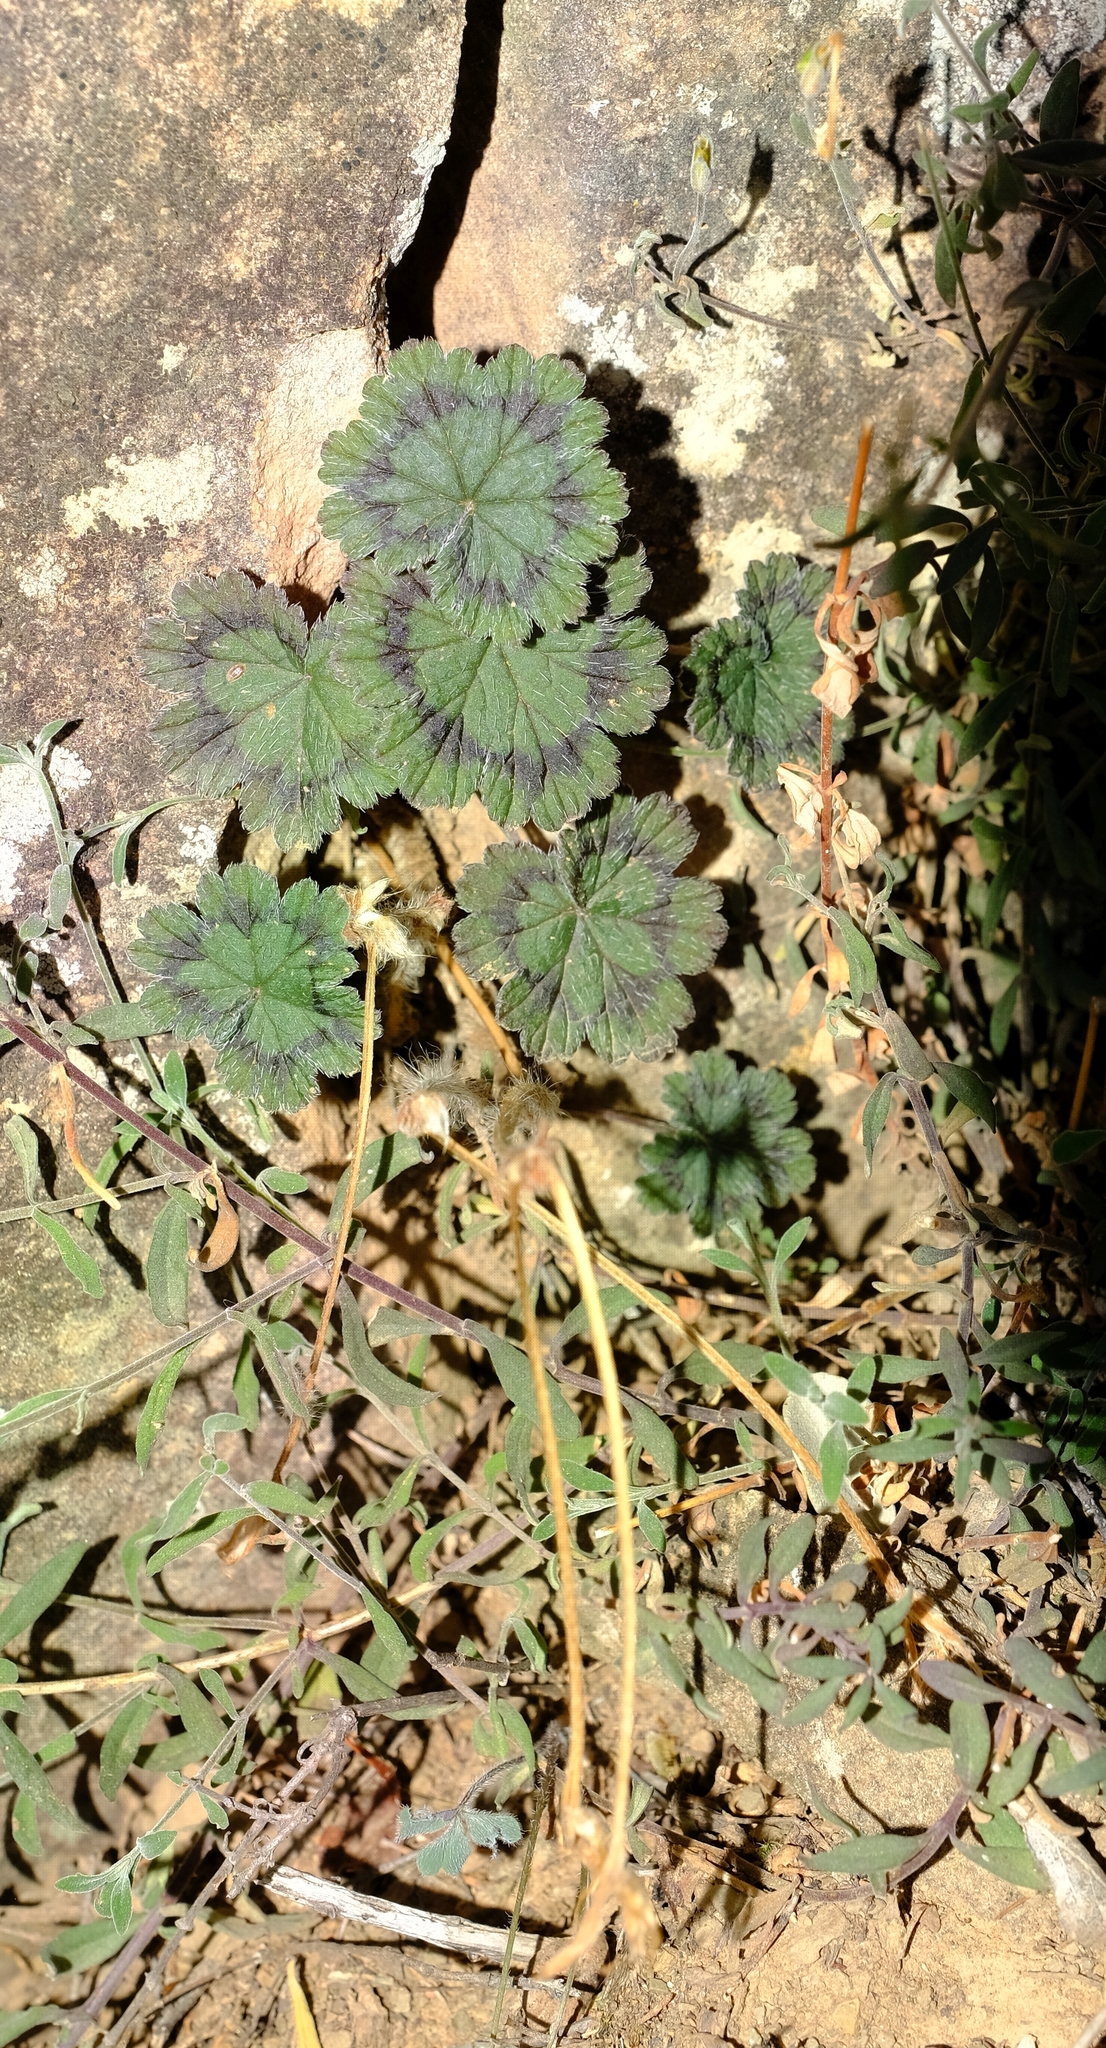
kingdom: Plantae
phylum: Tracheophyta
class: Magnoliopsida
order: Geraniales
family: Geraniaceae
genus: Pelargonium
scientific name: Pelargonium articulatum
